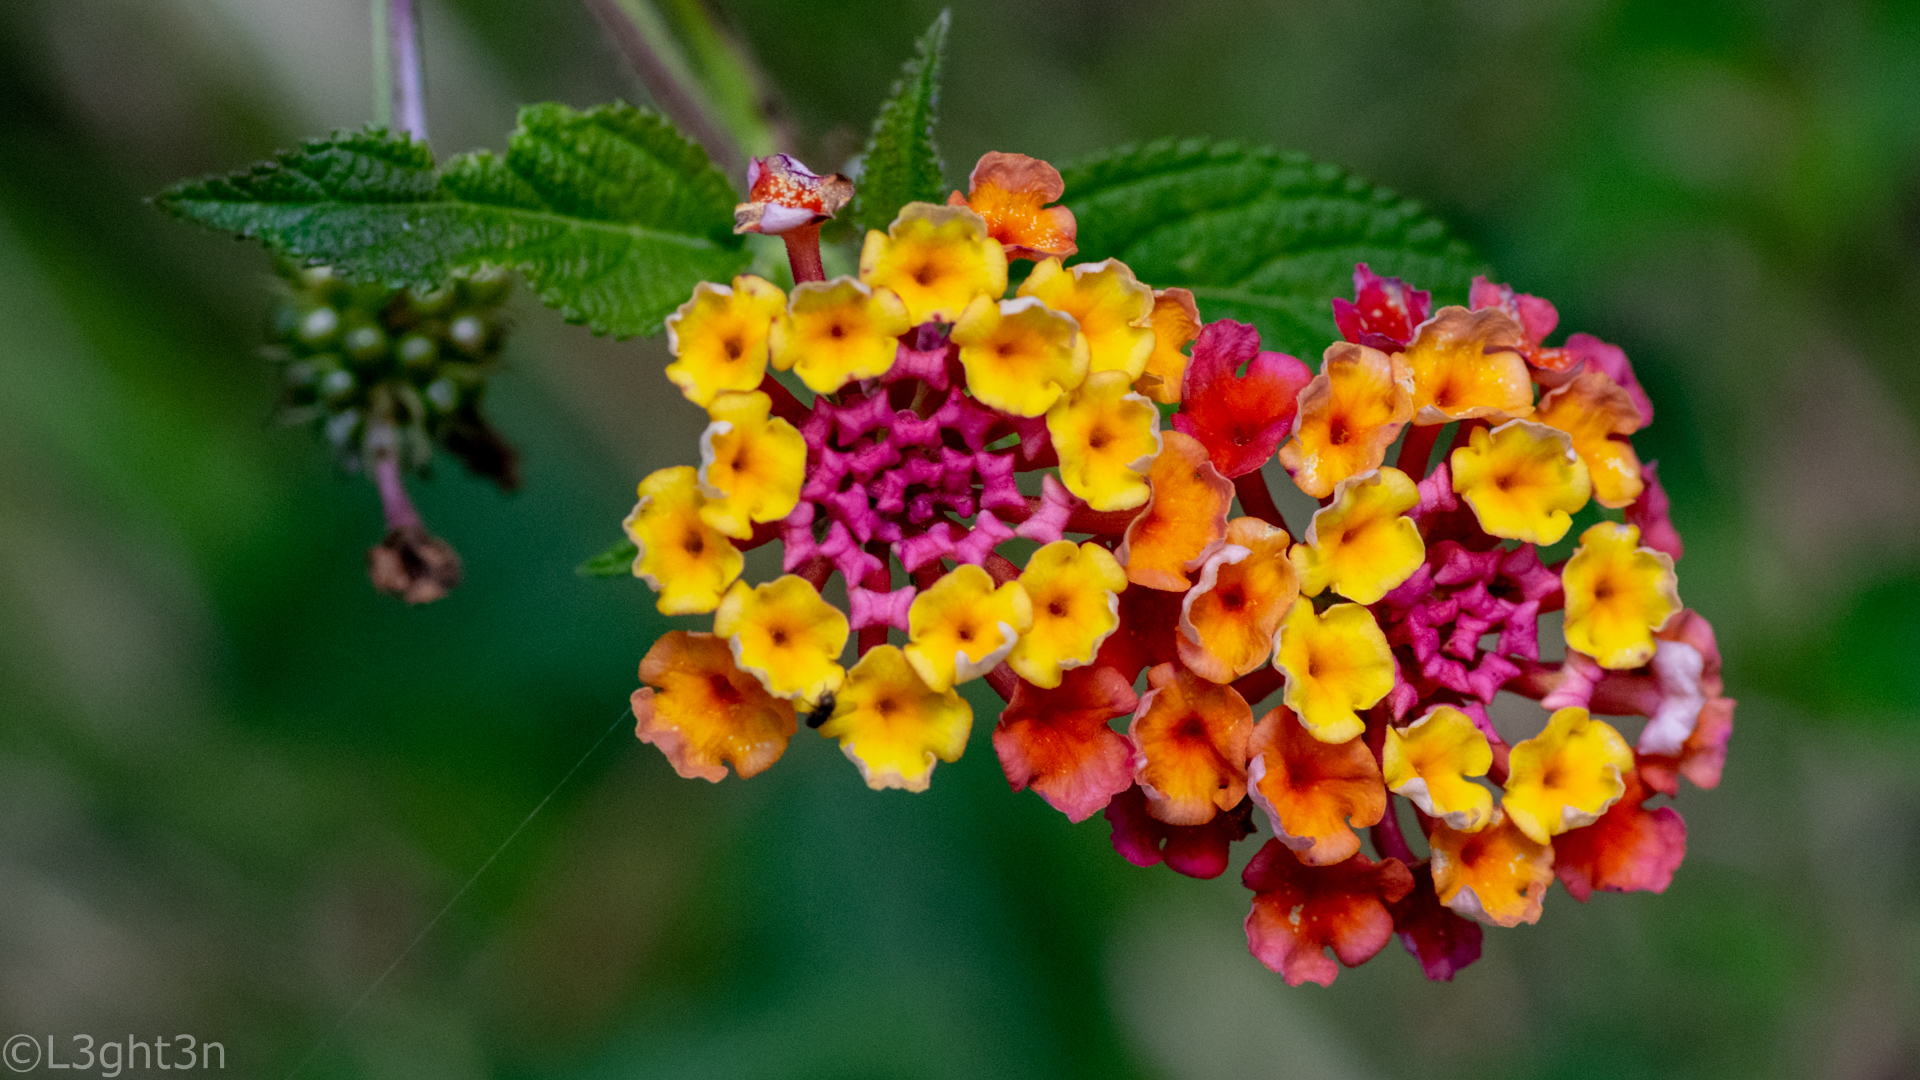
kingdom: Plantae
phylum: Tracheophyta
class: Magnoliopsida
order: Lamiales
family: Verbenaceae
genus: Lantana
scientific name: Lantana camara
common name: Lantana
